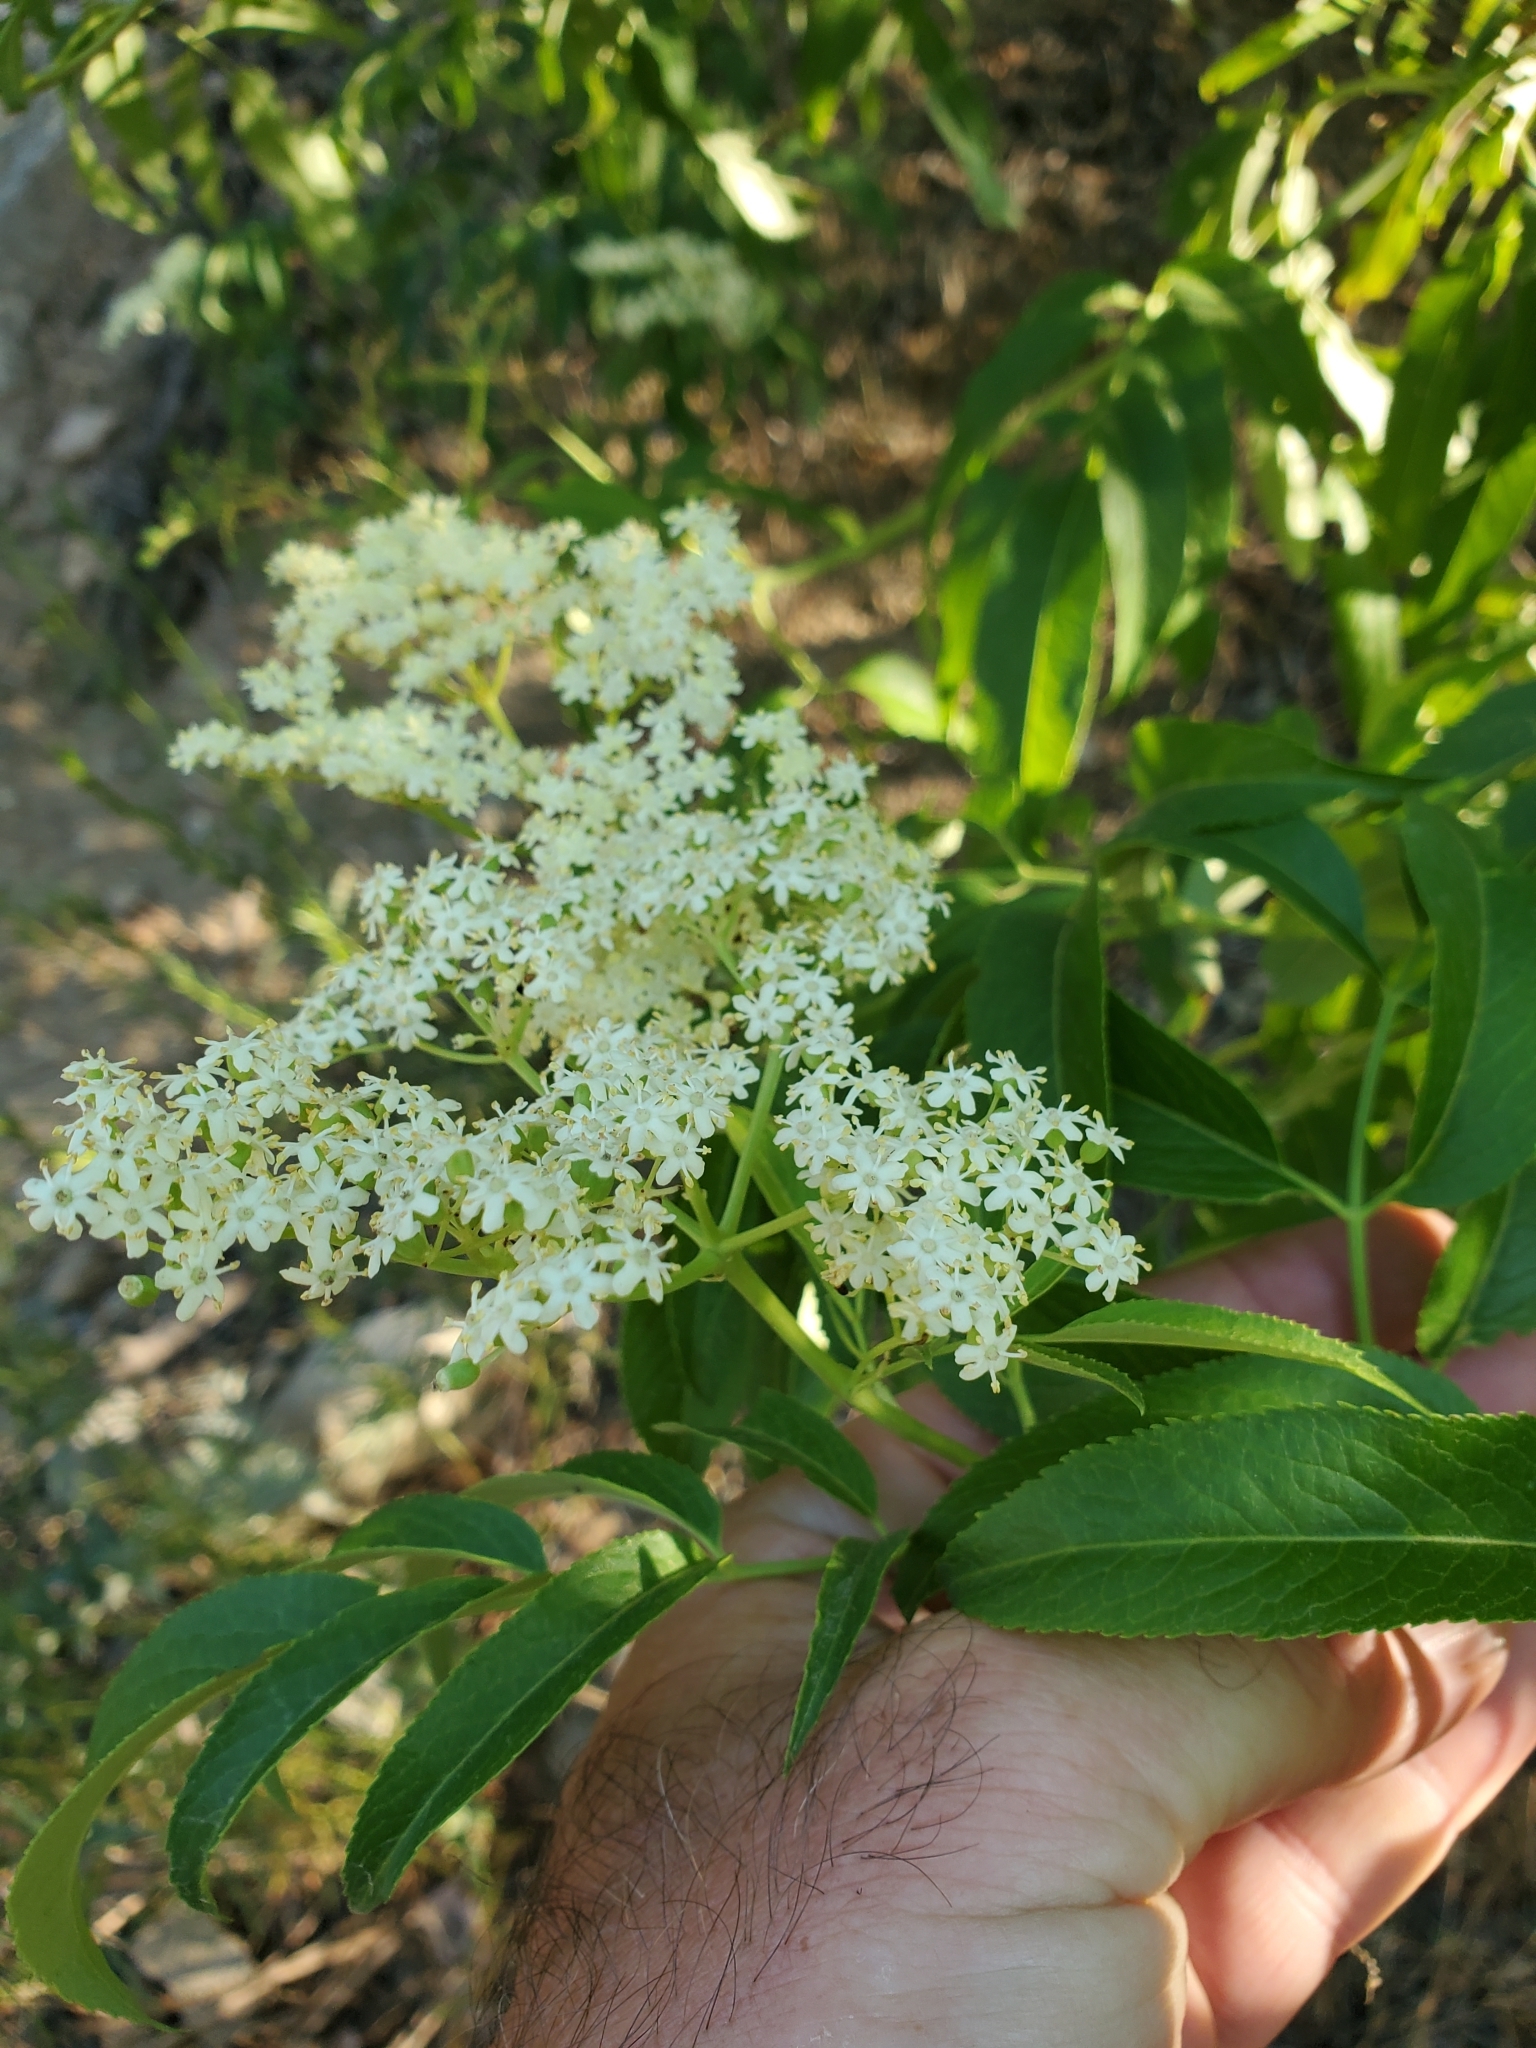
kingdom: Plantae
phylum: Tracheophyta
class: Magnoliopsida
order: Dipsacales
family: Viburnaceae
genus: Sambucus
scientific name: Sambucus cerulea
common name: Blue elder
